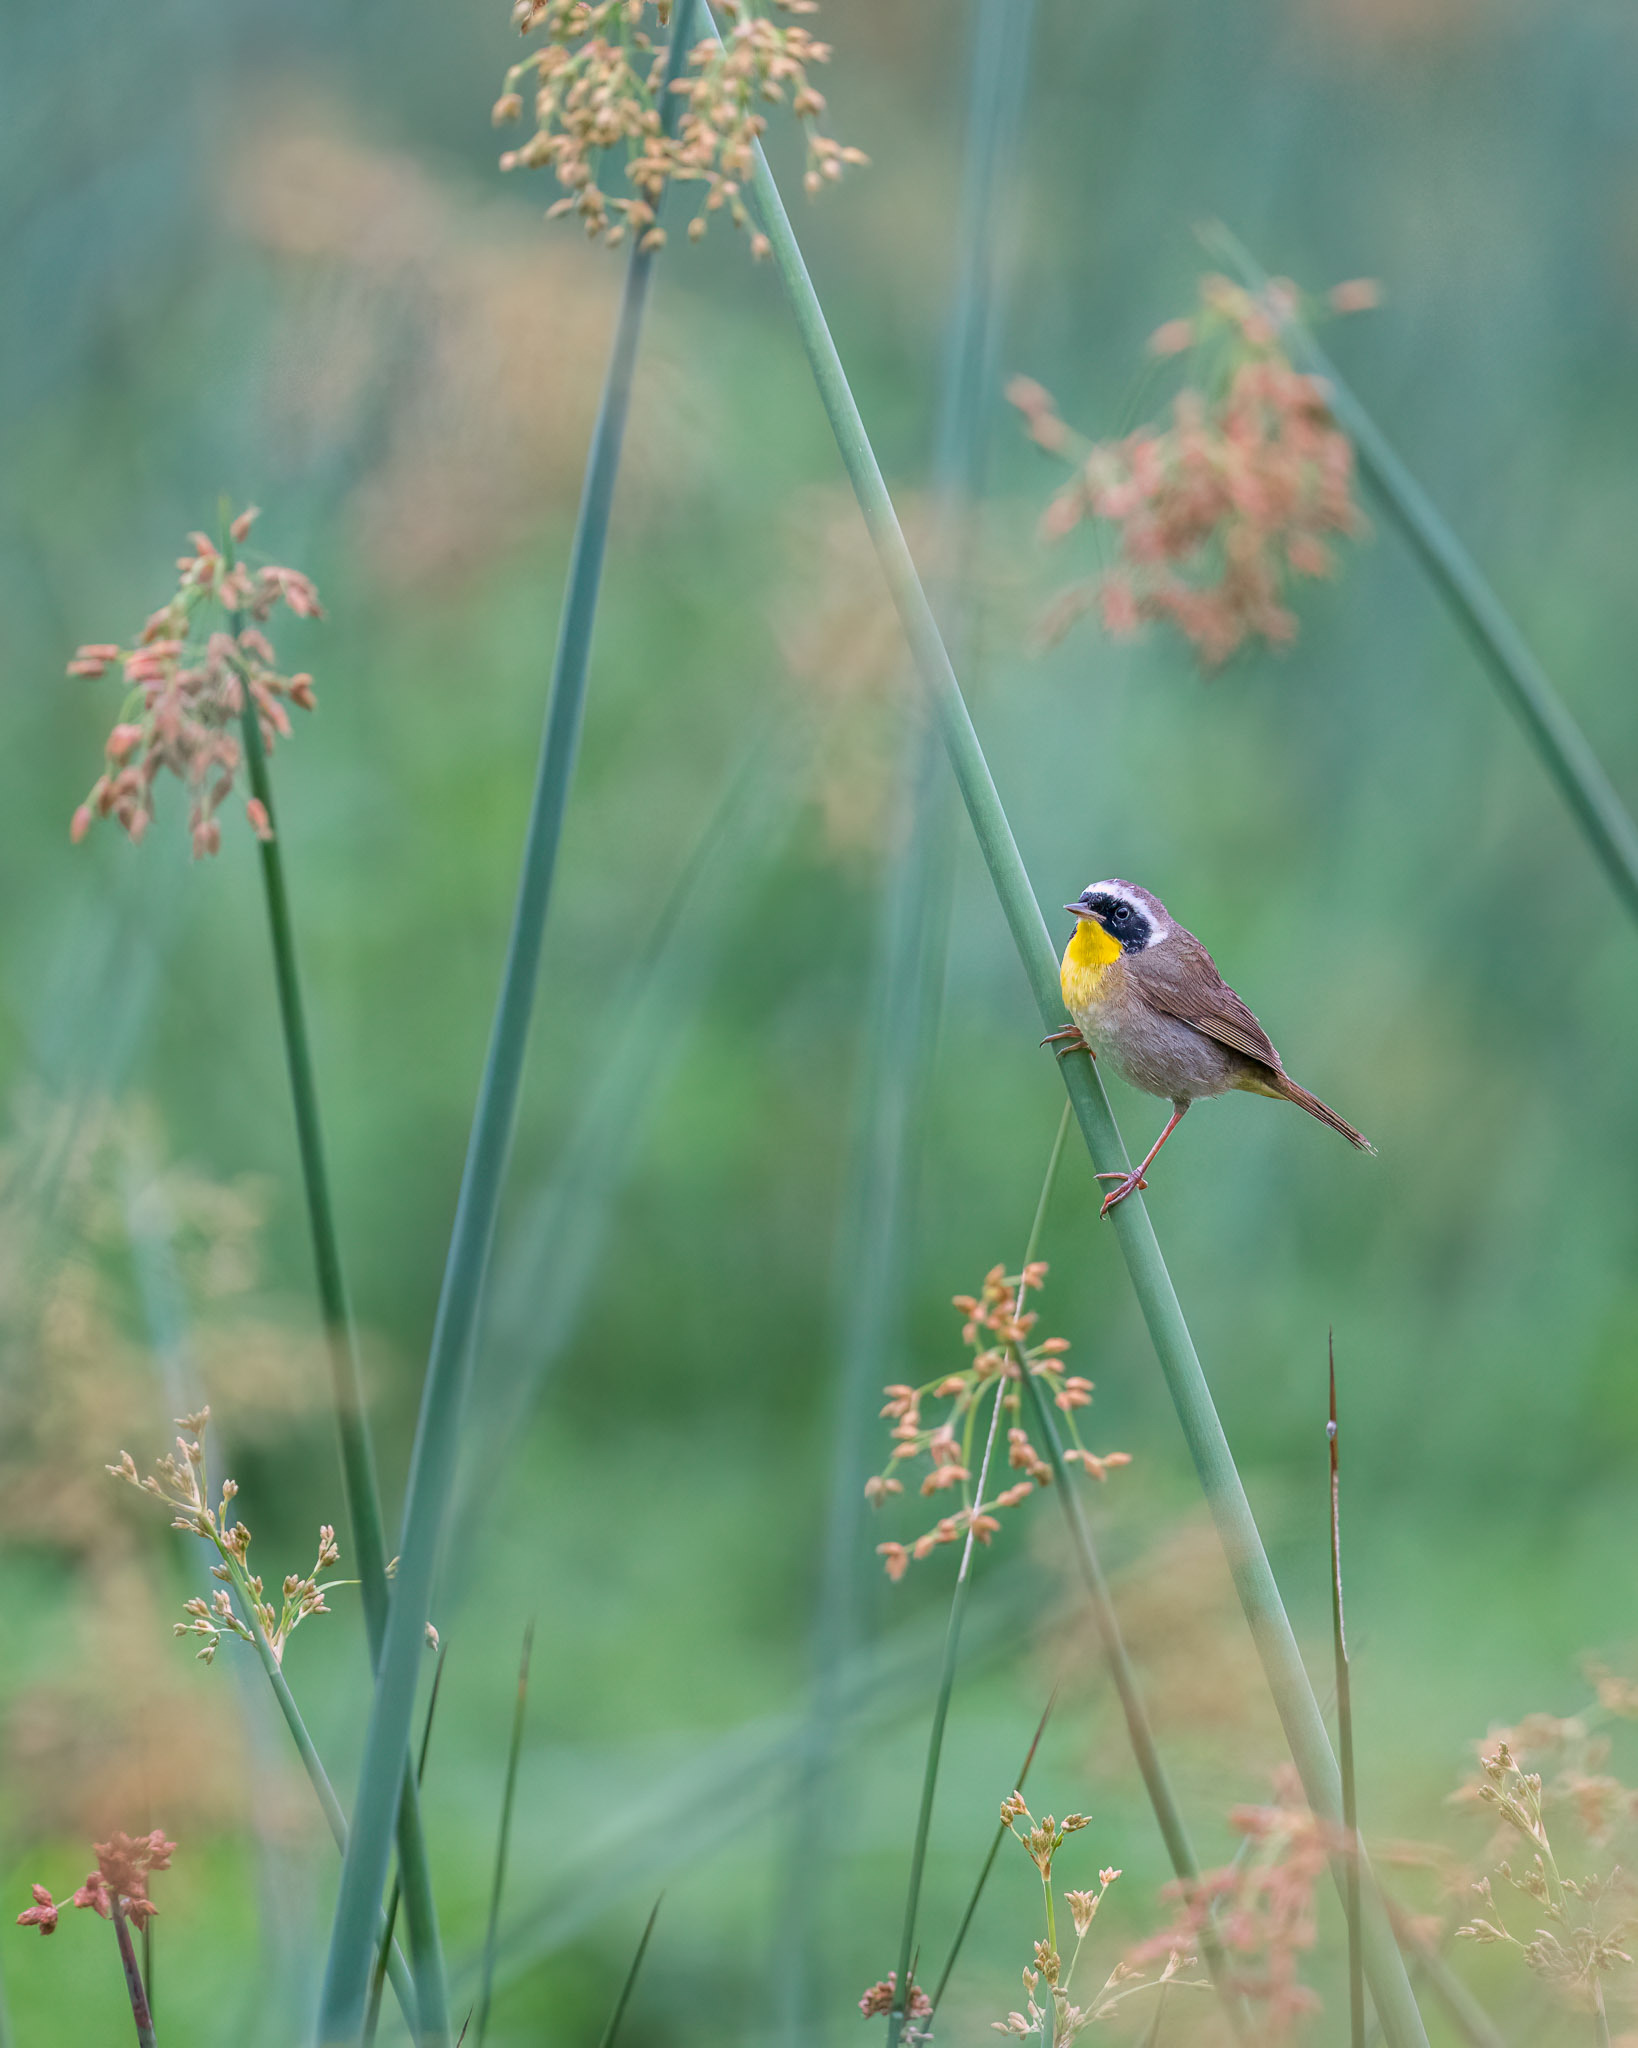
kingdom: Animalia
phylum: Chordata
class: Aves
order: Passeriformes
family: Parulidae
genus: Geothlypis
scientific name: Geothlypis trichas
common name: Common yellowthroat
